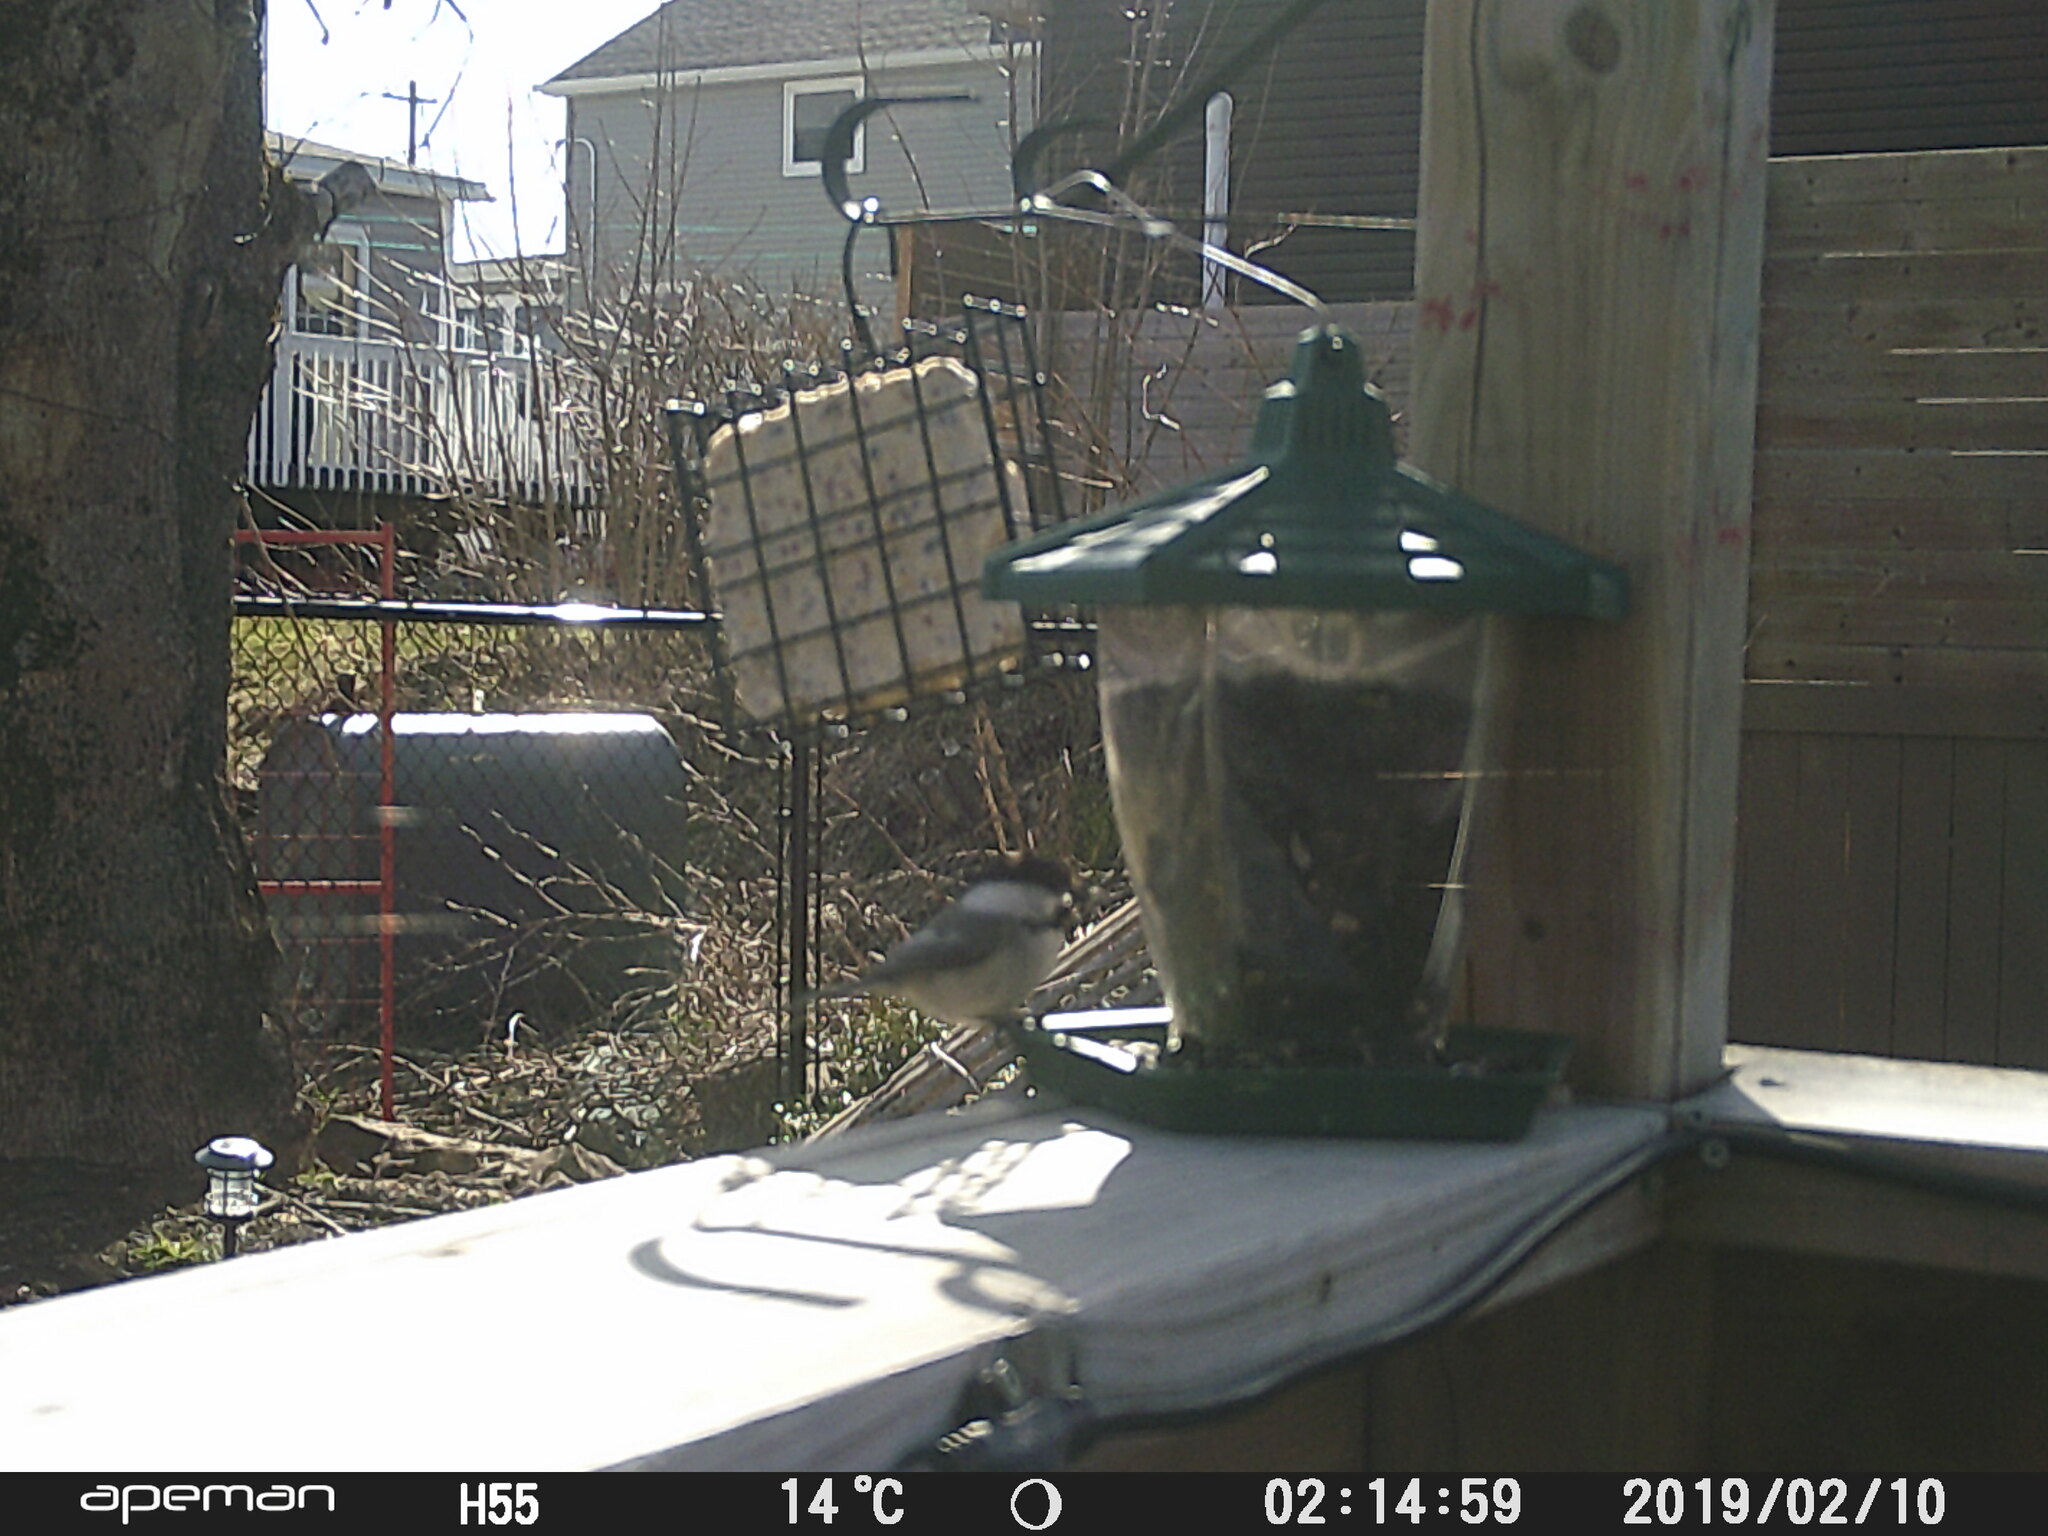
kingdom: Animalia
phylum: Chordata
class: Aves
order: Passeriformes
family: Paridae
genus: Poecile
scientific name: Poecile atricapillus
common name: Black-capped chickadee
